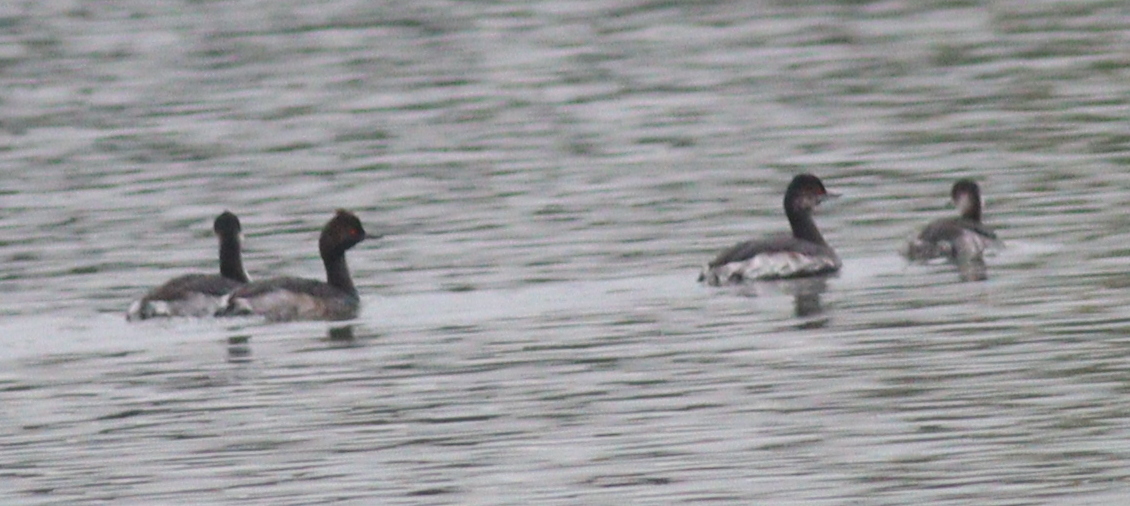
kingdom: Animalia
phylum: Chordata
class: Aves
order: Podicipediformes
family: Podicipedidae
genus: Podiceps
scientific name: Podiceps nigricollis
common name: Black-necked grebe
